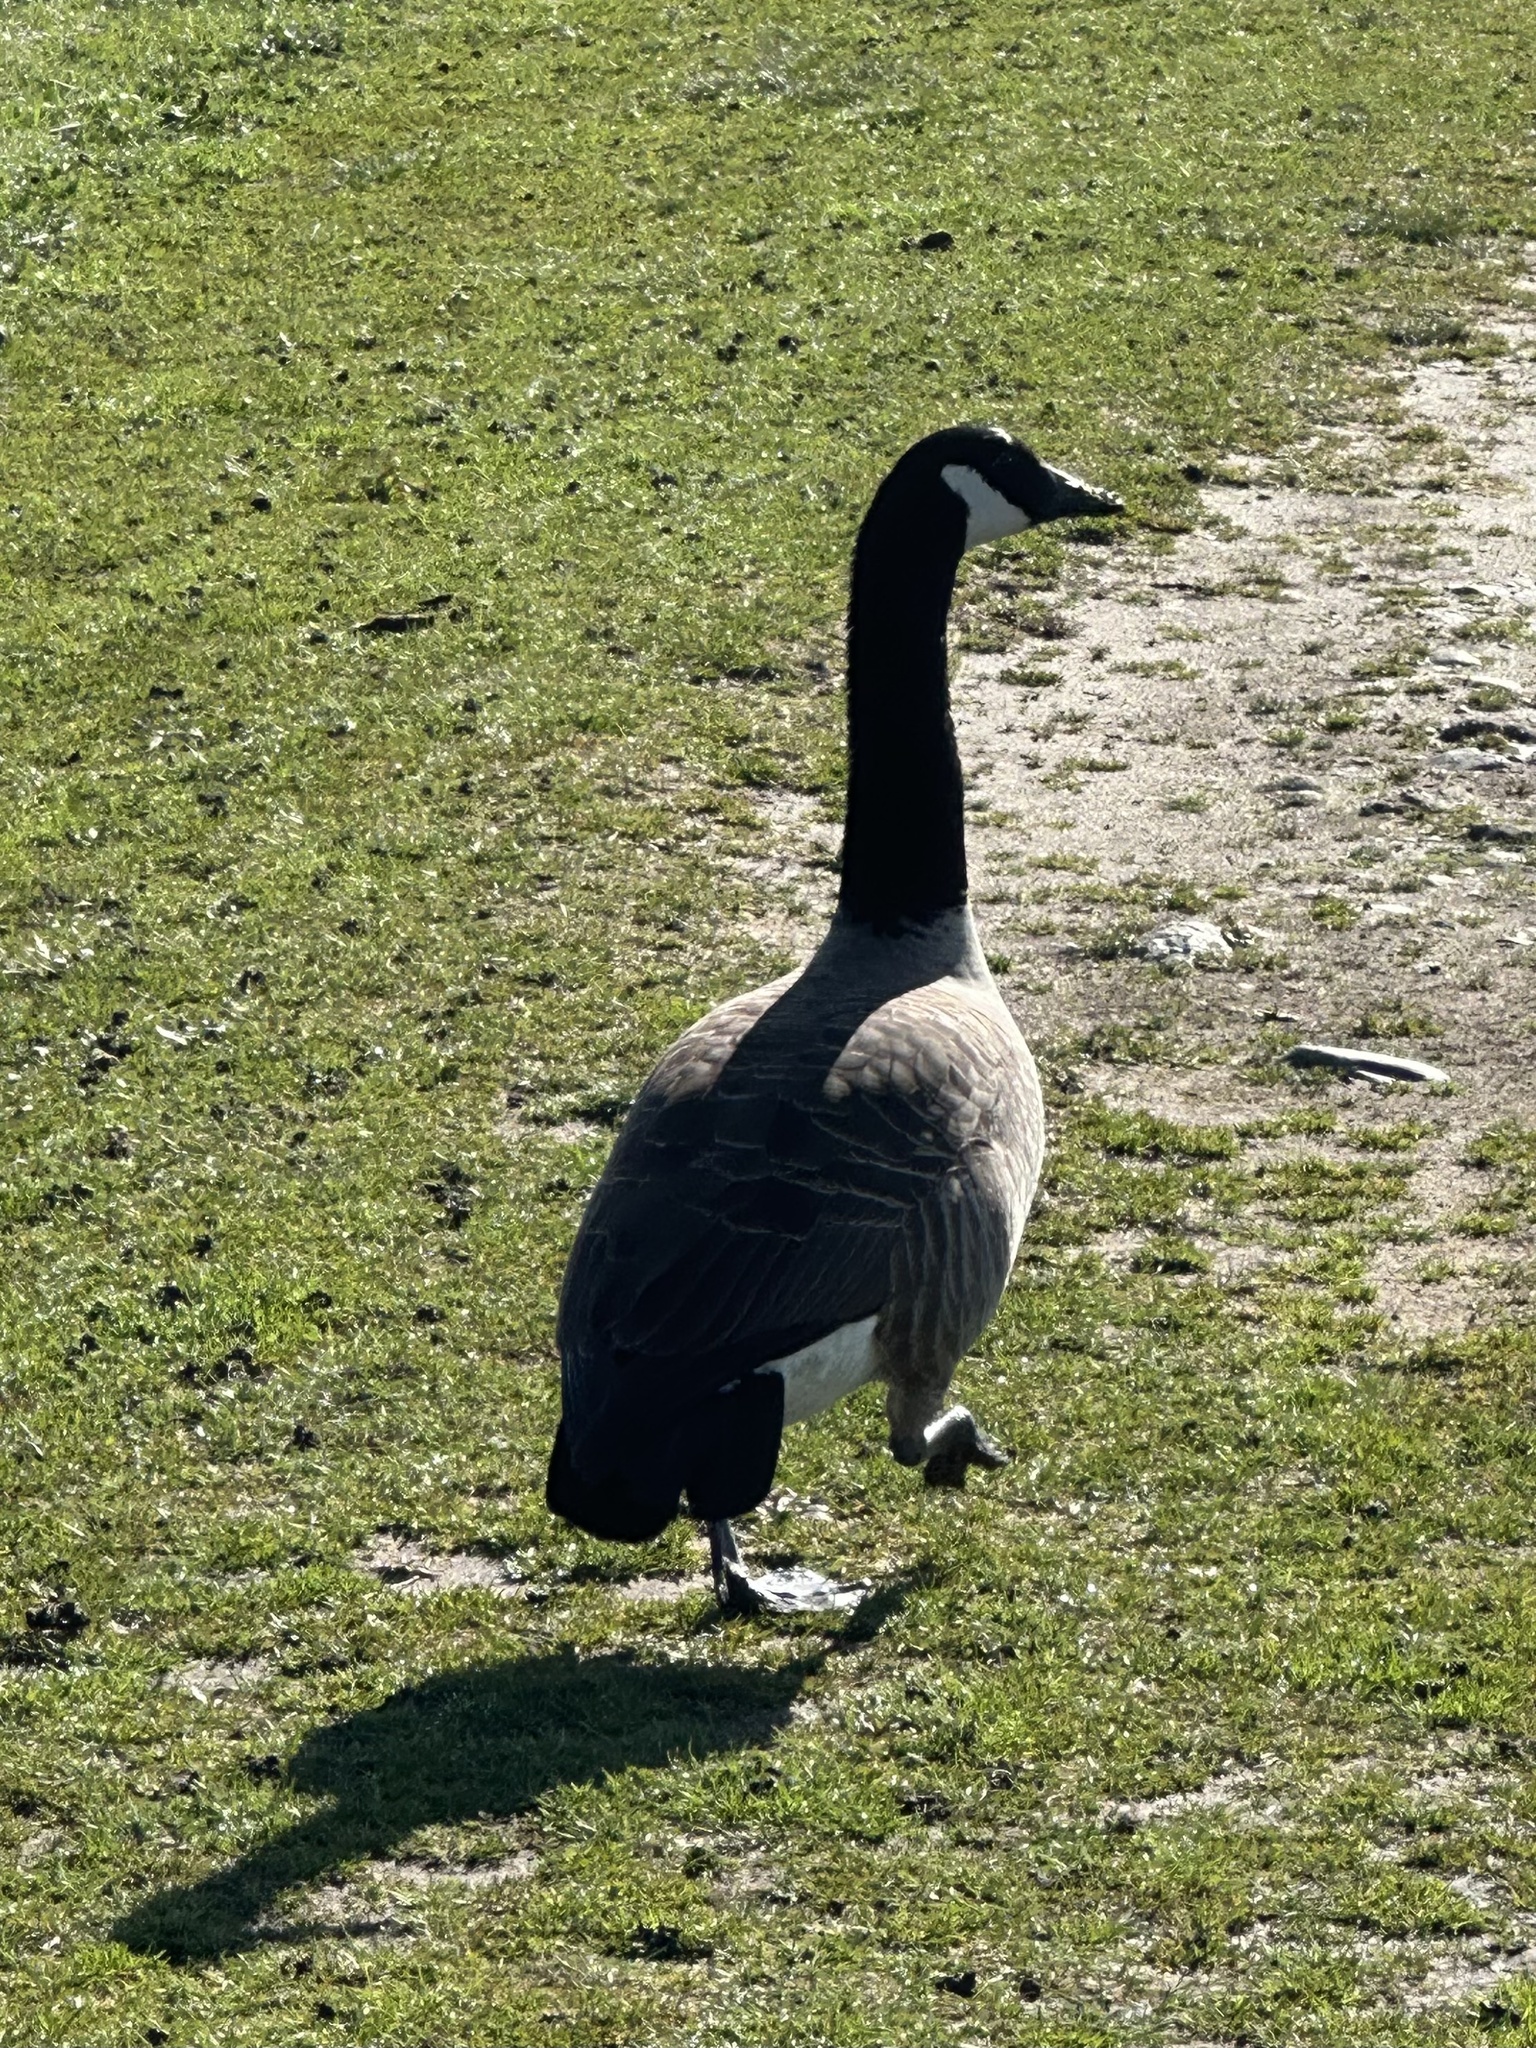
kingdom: Animalia
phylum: Chordata
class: Aves
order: Anseriformes
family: Anatidae
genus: Branta
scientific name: Branta canadensis
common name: Canada goose
